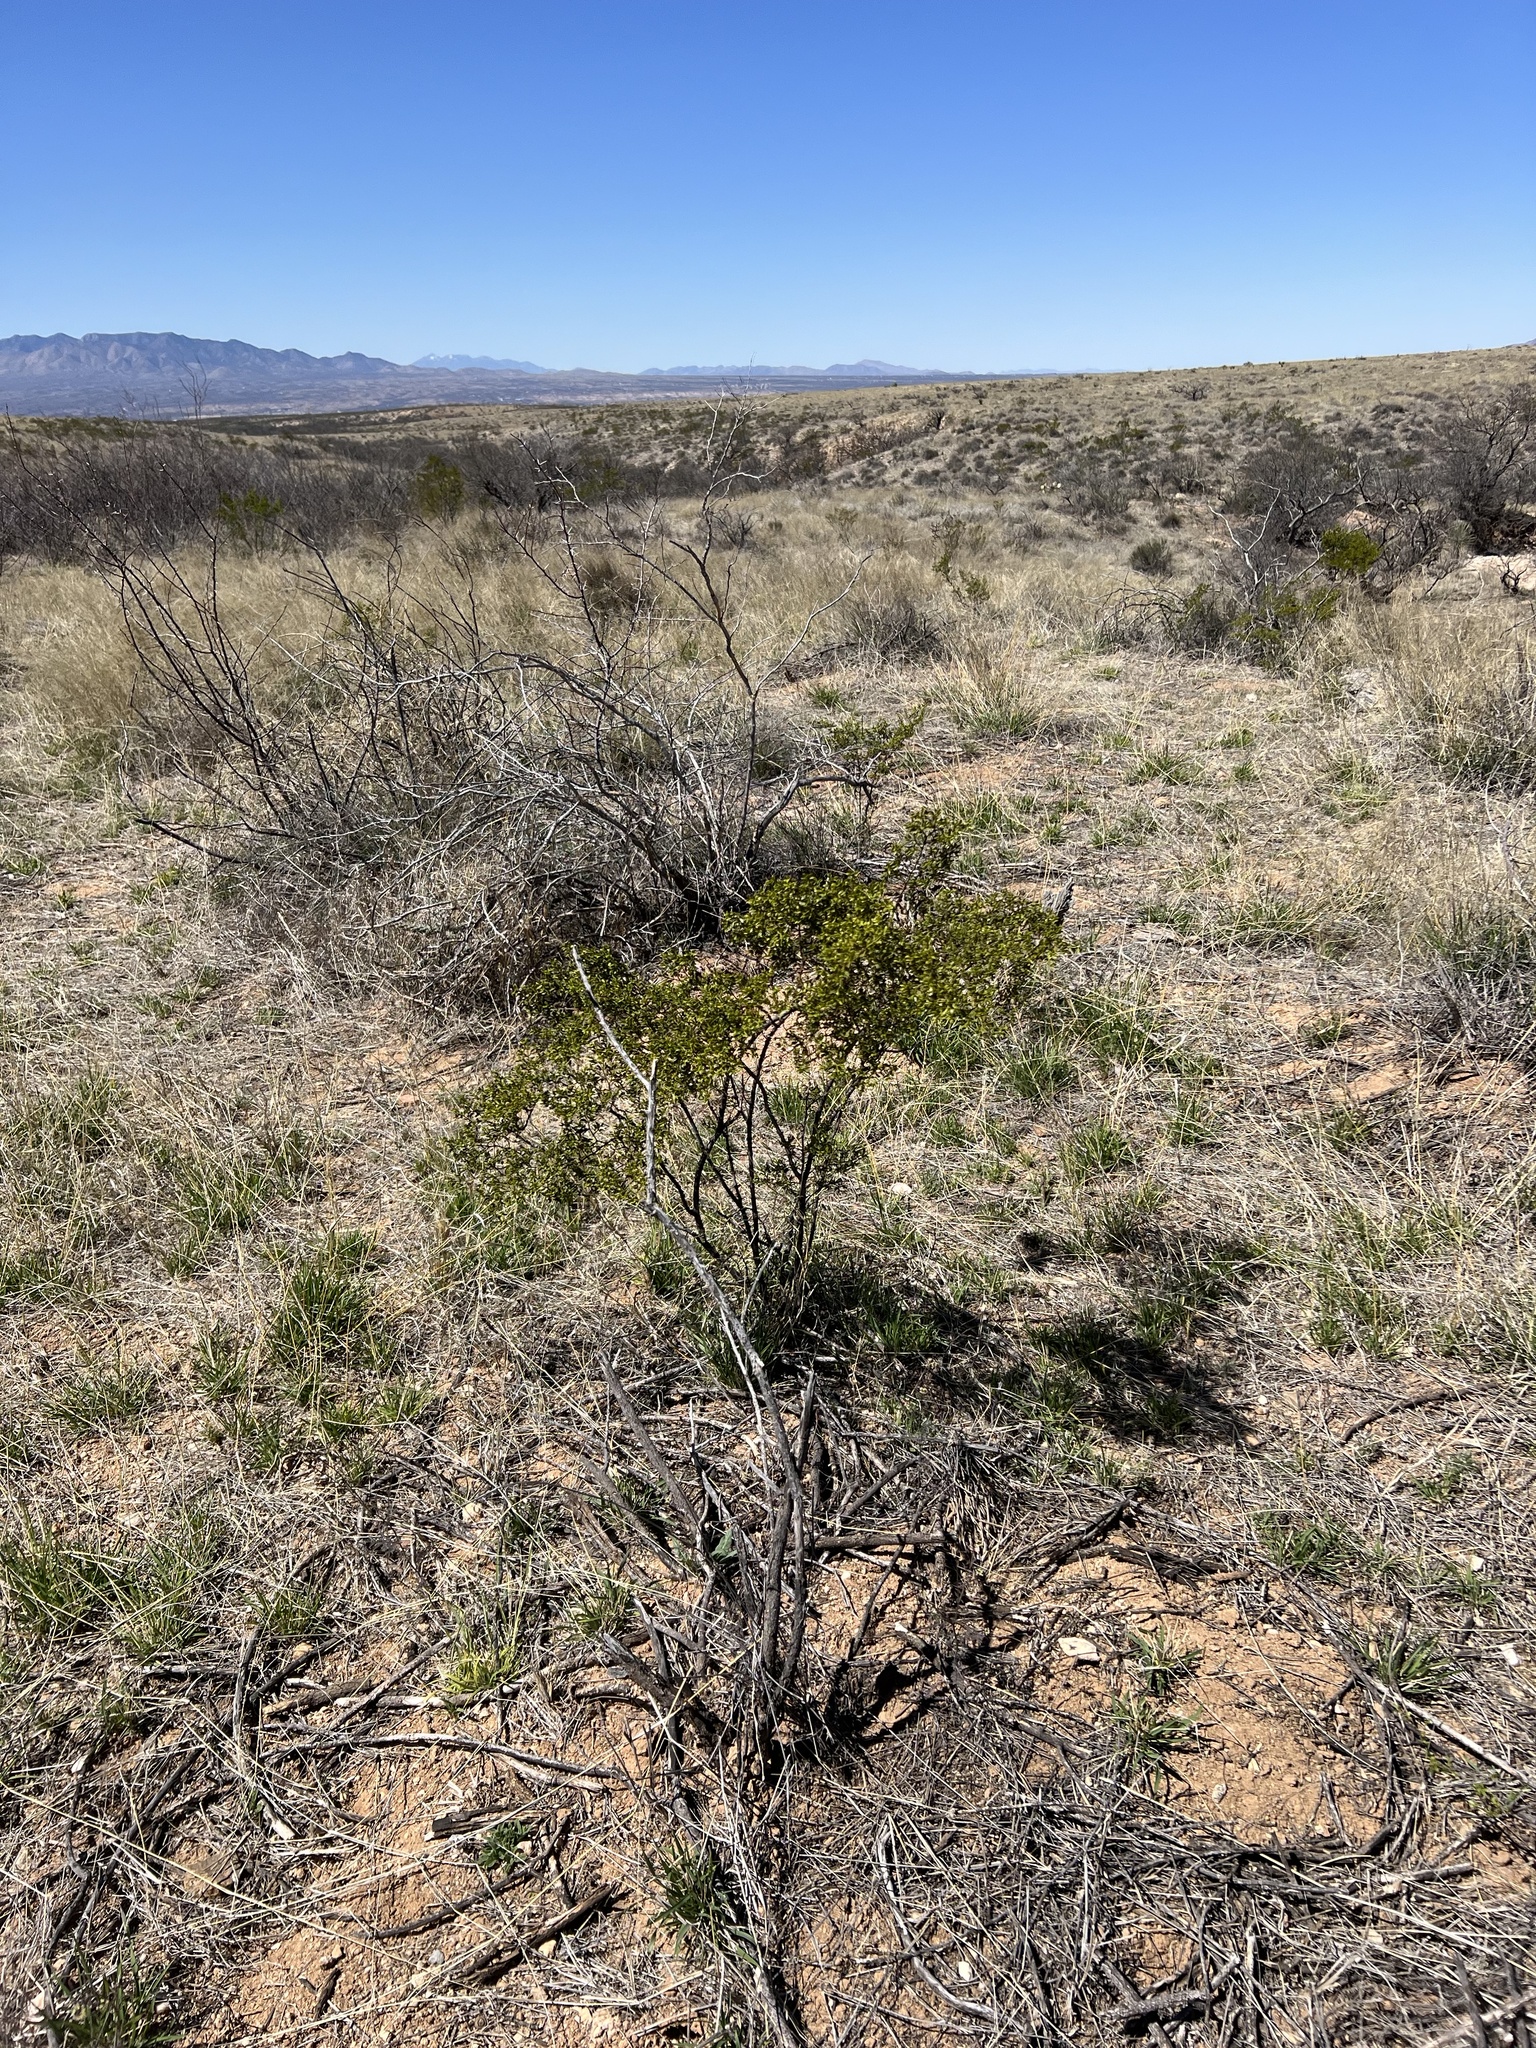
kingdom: Plantae
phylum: Tracheophyta
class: Magnoliopsida
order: Zygophyllales
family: Zygophyllaceae
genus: Larrea
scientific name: Larrea tridentata
